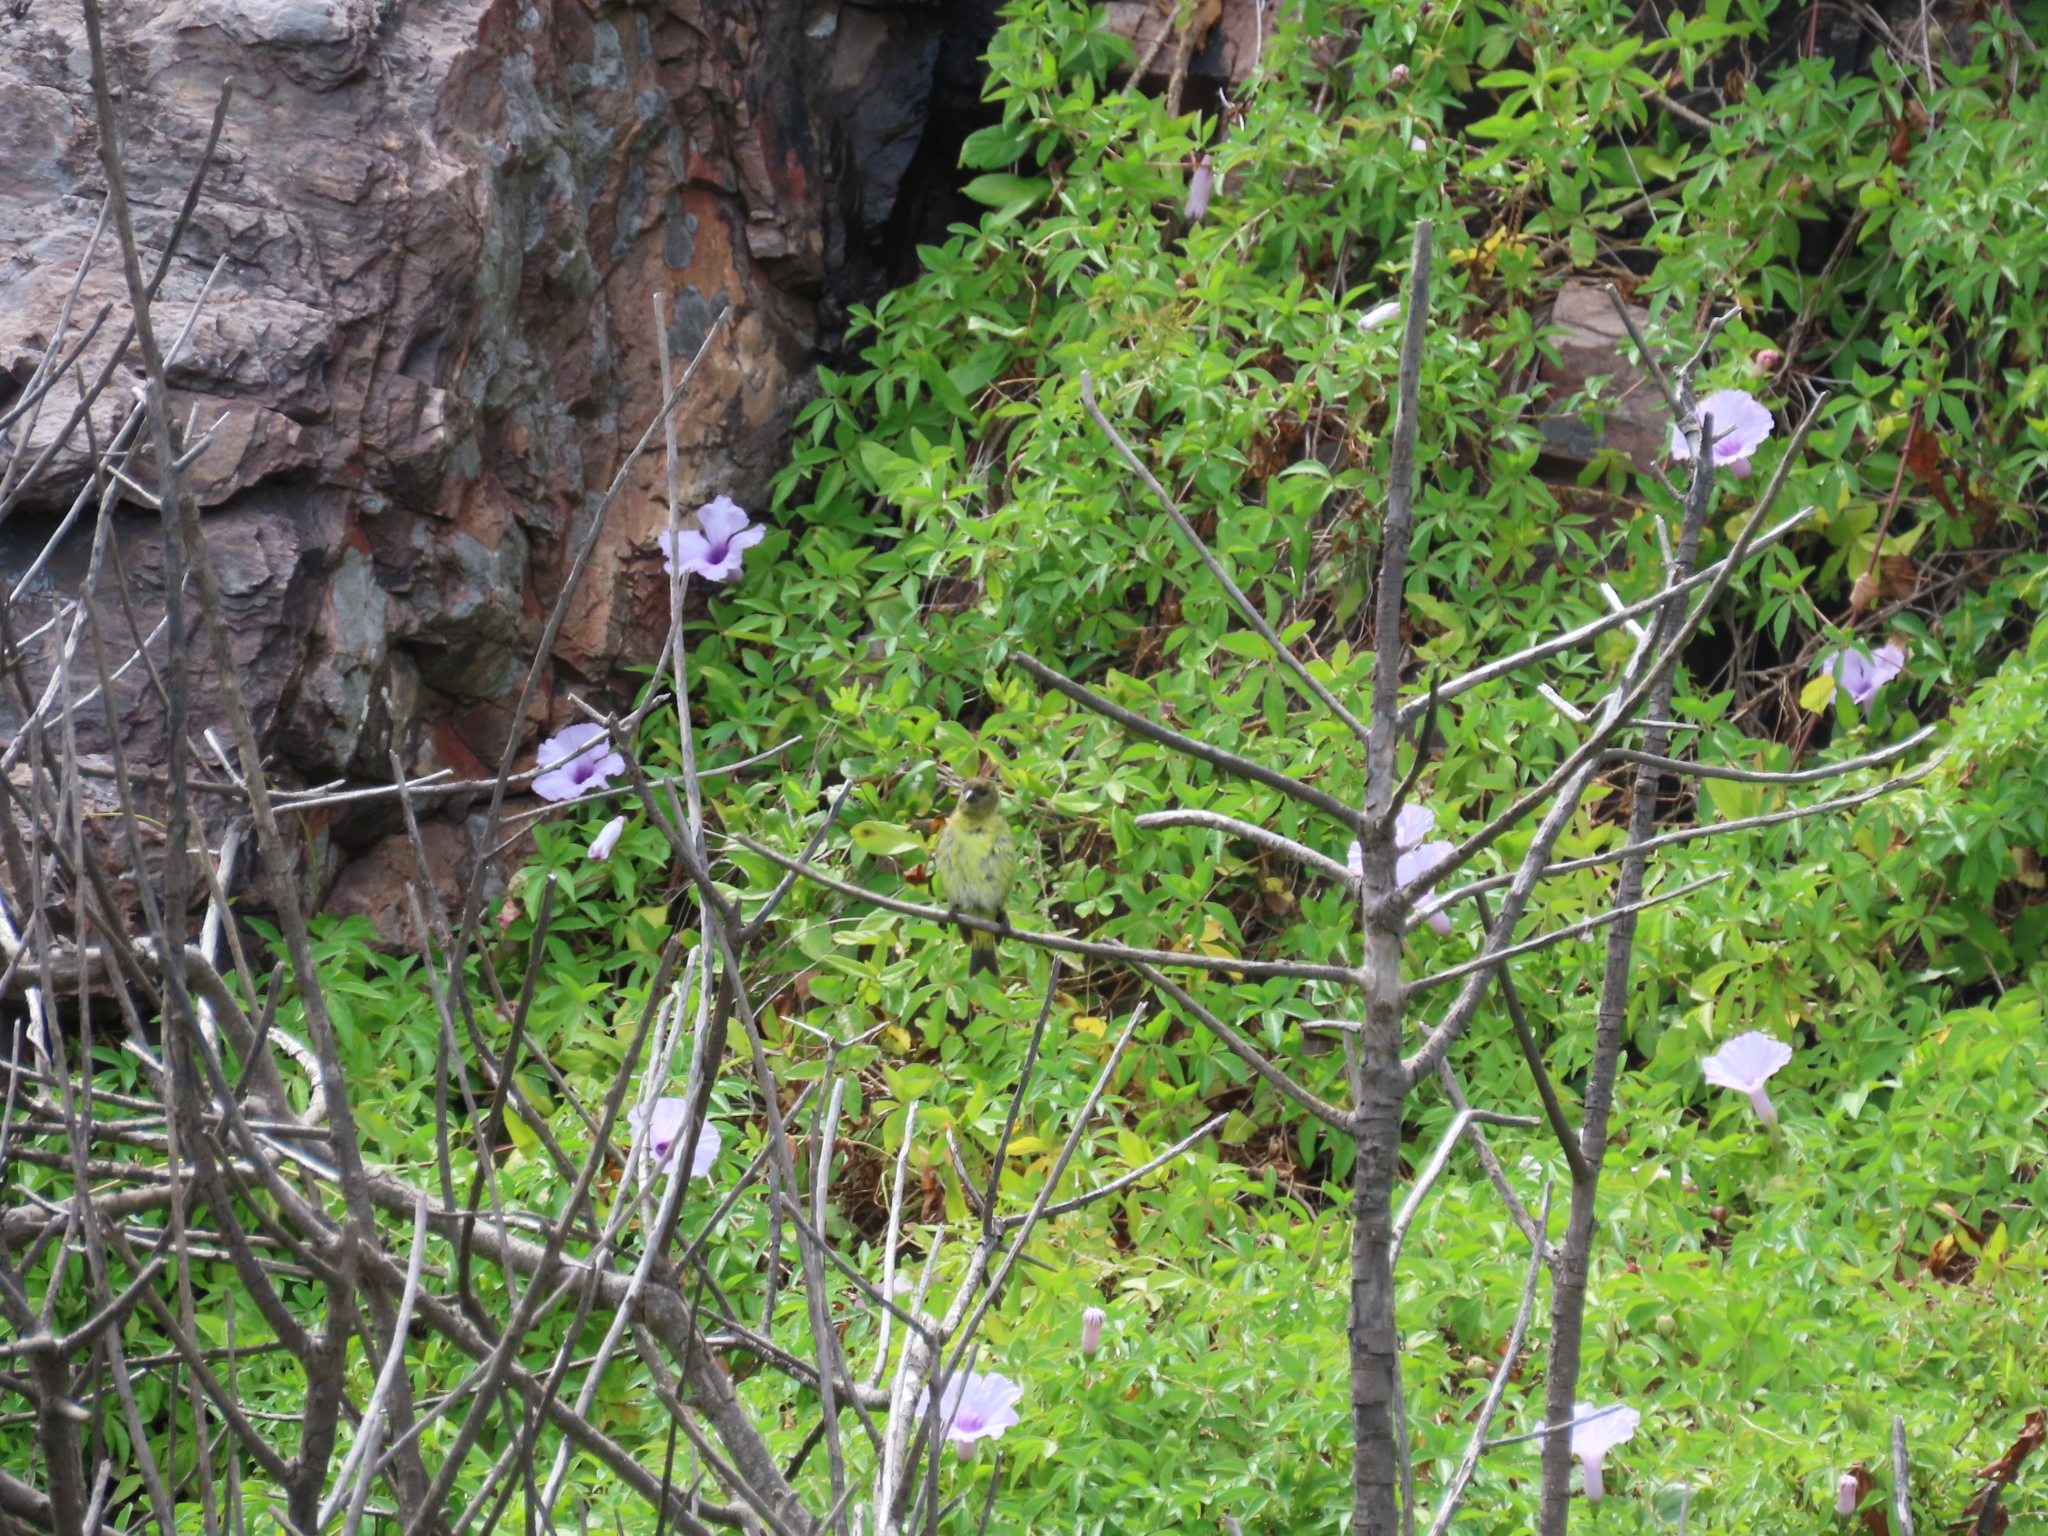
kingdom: Animalia
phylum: Chordata
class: Aves
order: Passeriformes
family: Fringillidae
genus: Spinus
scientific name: Spinus magellanicus
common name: Hooded siskin
